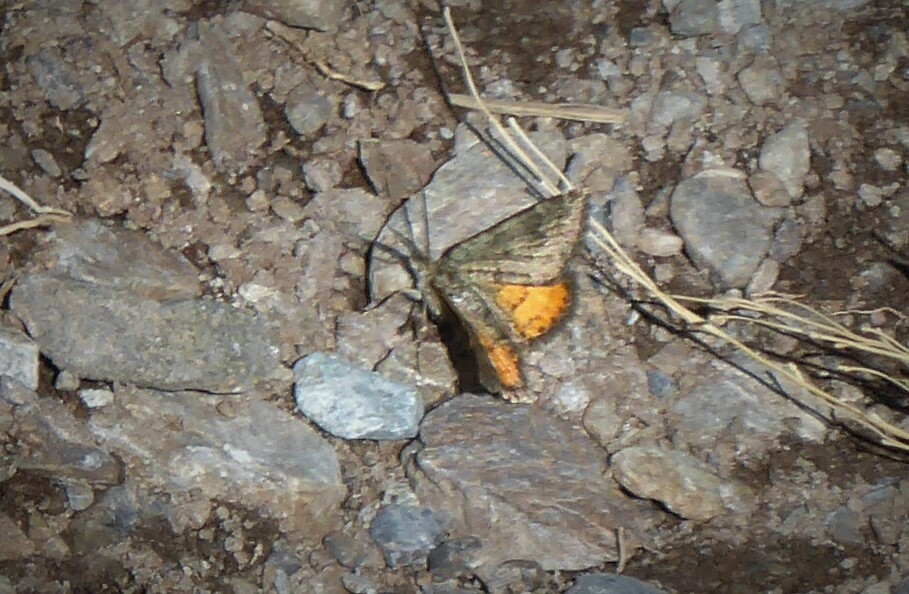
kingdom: Animalia
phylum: Arthropoda
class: Insecta
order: Lepidoptera
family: Geometridae
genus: Paranotoreas
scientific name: Paranotoreas brephosata
